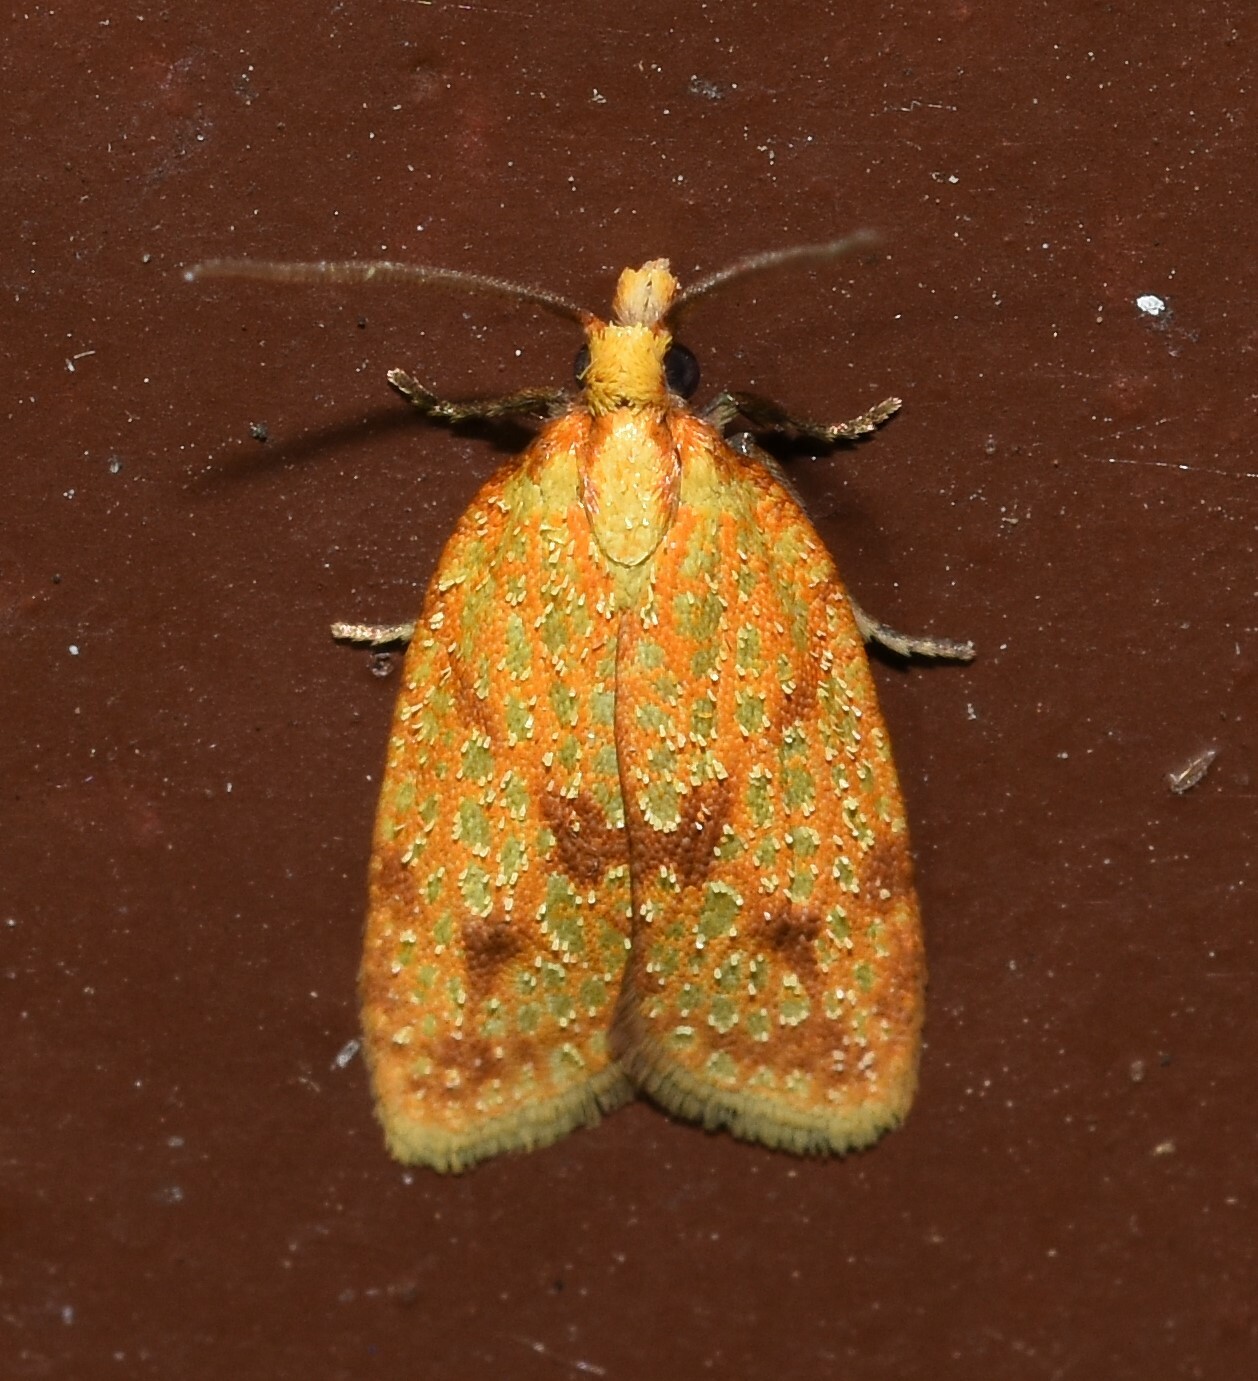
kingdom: Animalia
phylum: Arthropoda
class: Insecta
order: Lepidoptera
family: Tortricidae
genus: Sparganothis
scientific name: Sparganothis sulfureana
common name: Sparganothis fruitworm moth
